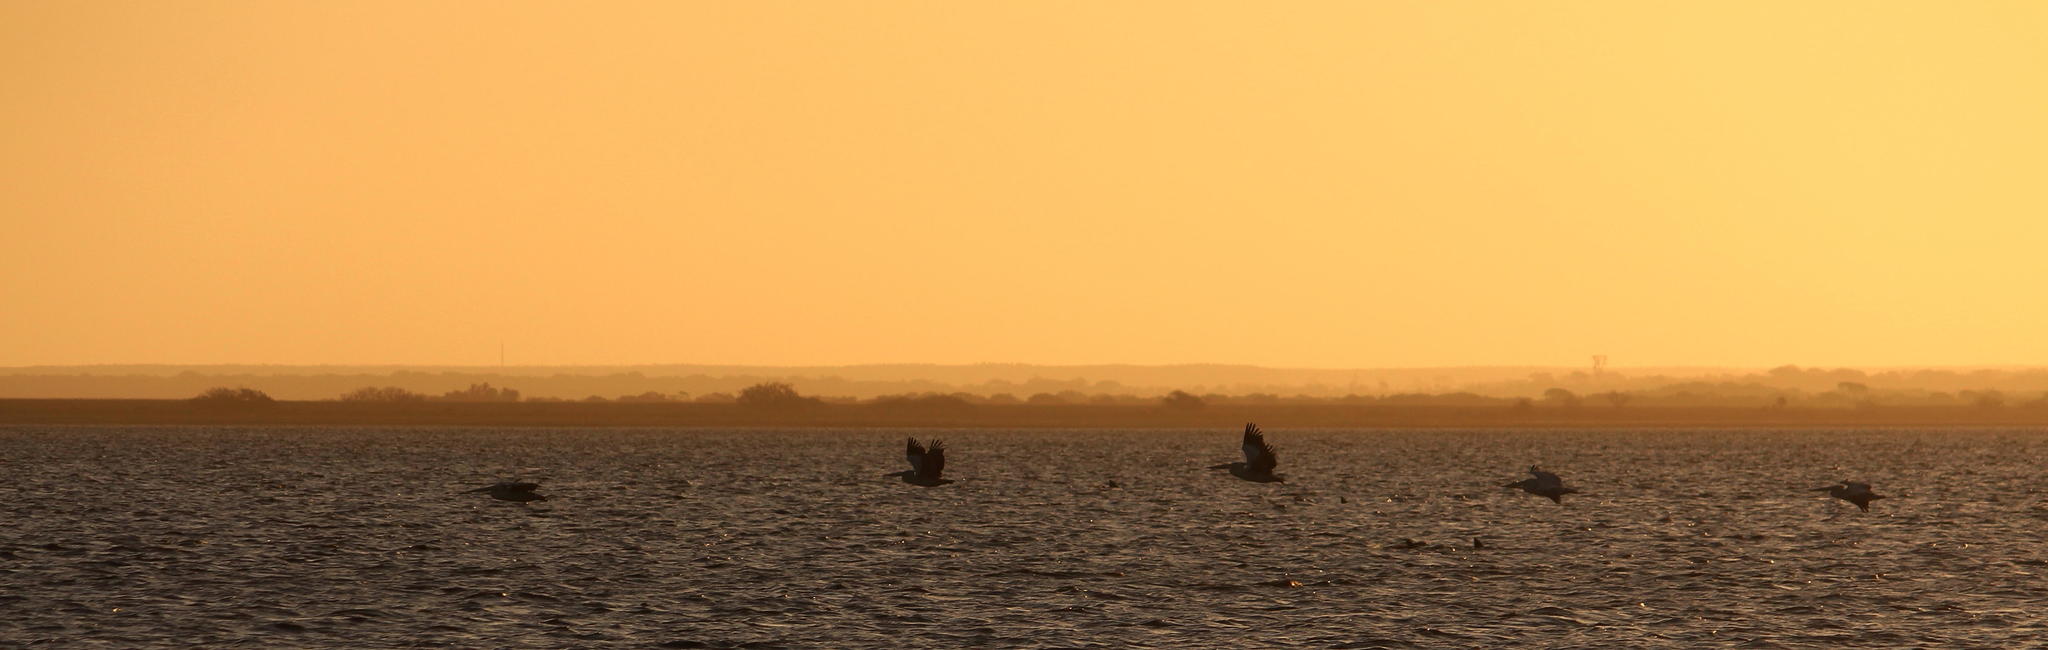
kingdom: Animalia
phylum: Chordata
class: Aves
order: Pelecaniformes
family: Pelecanidae
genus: Pelecanus
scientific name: Pelecanus onocrotalus
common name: Great white pelican
